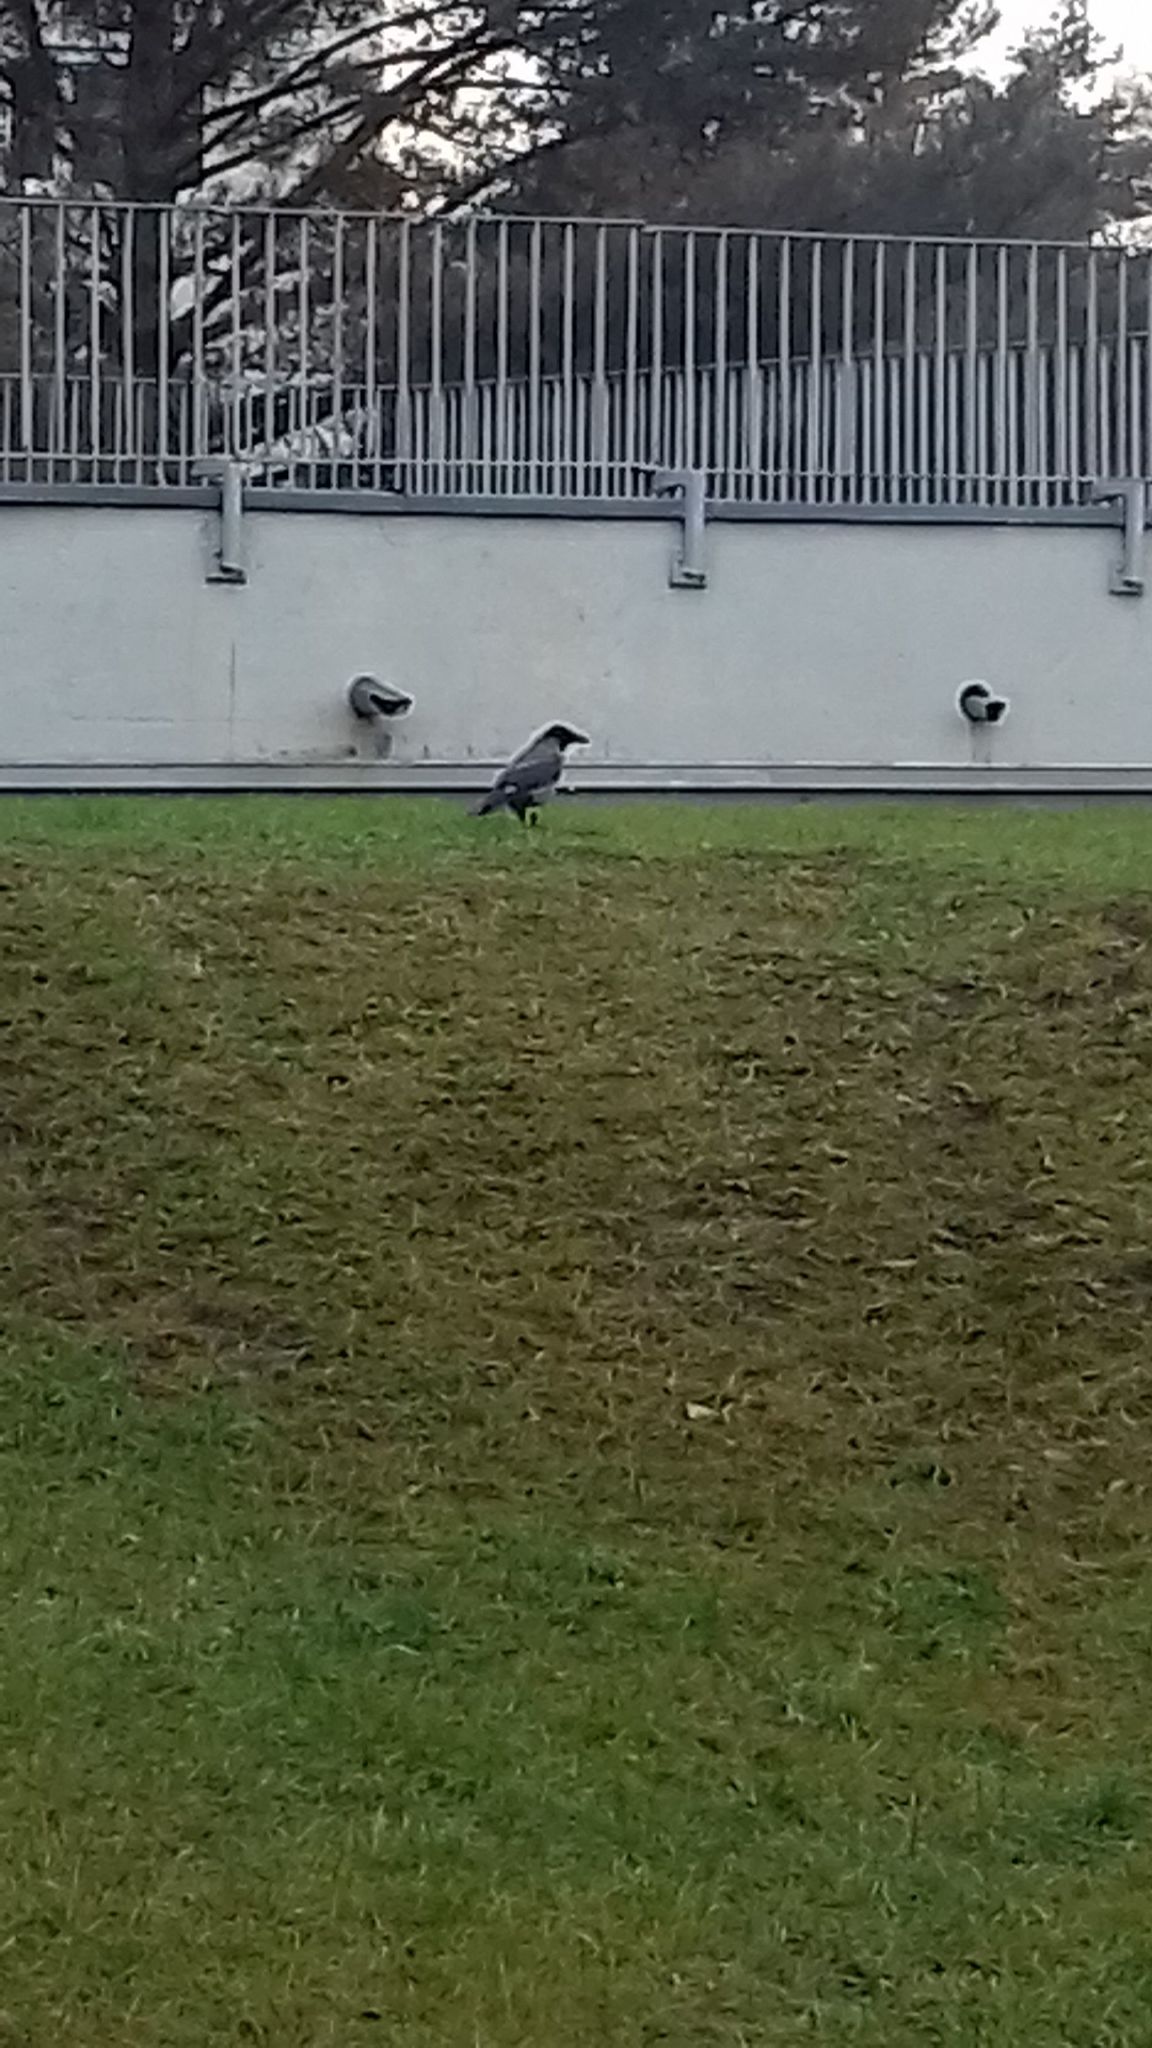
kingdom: Animalia
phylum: Chordata
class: Aves
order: Passeriformes
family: Corvidae
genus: Corvus
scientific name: Corvus cornix
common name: Hooded crow
